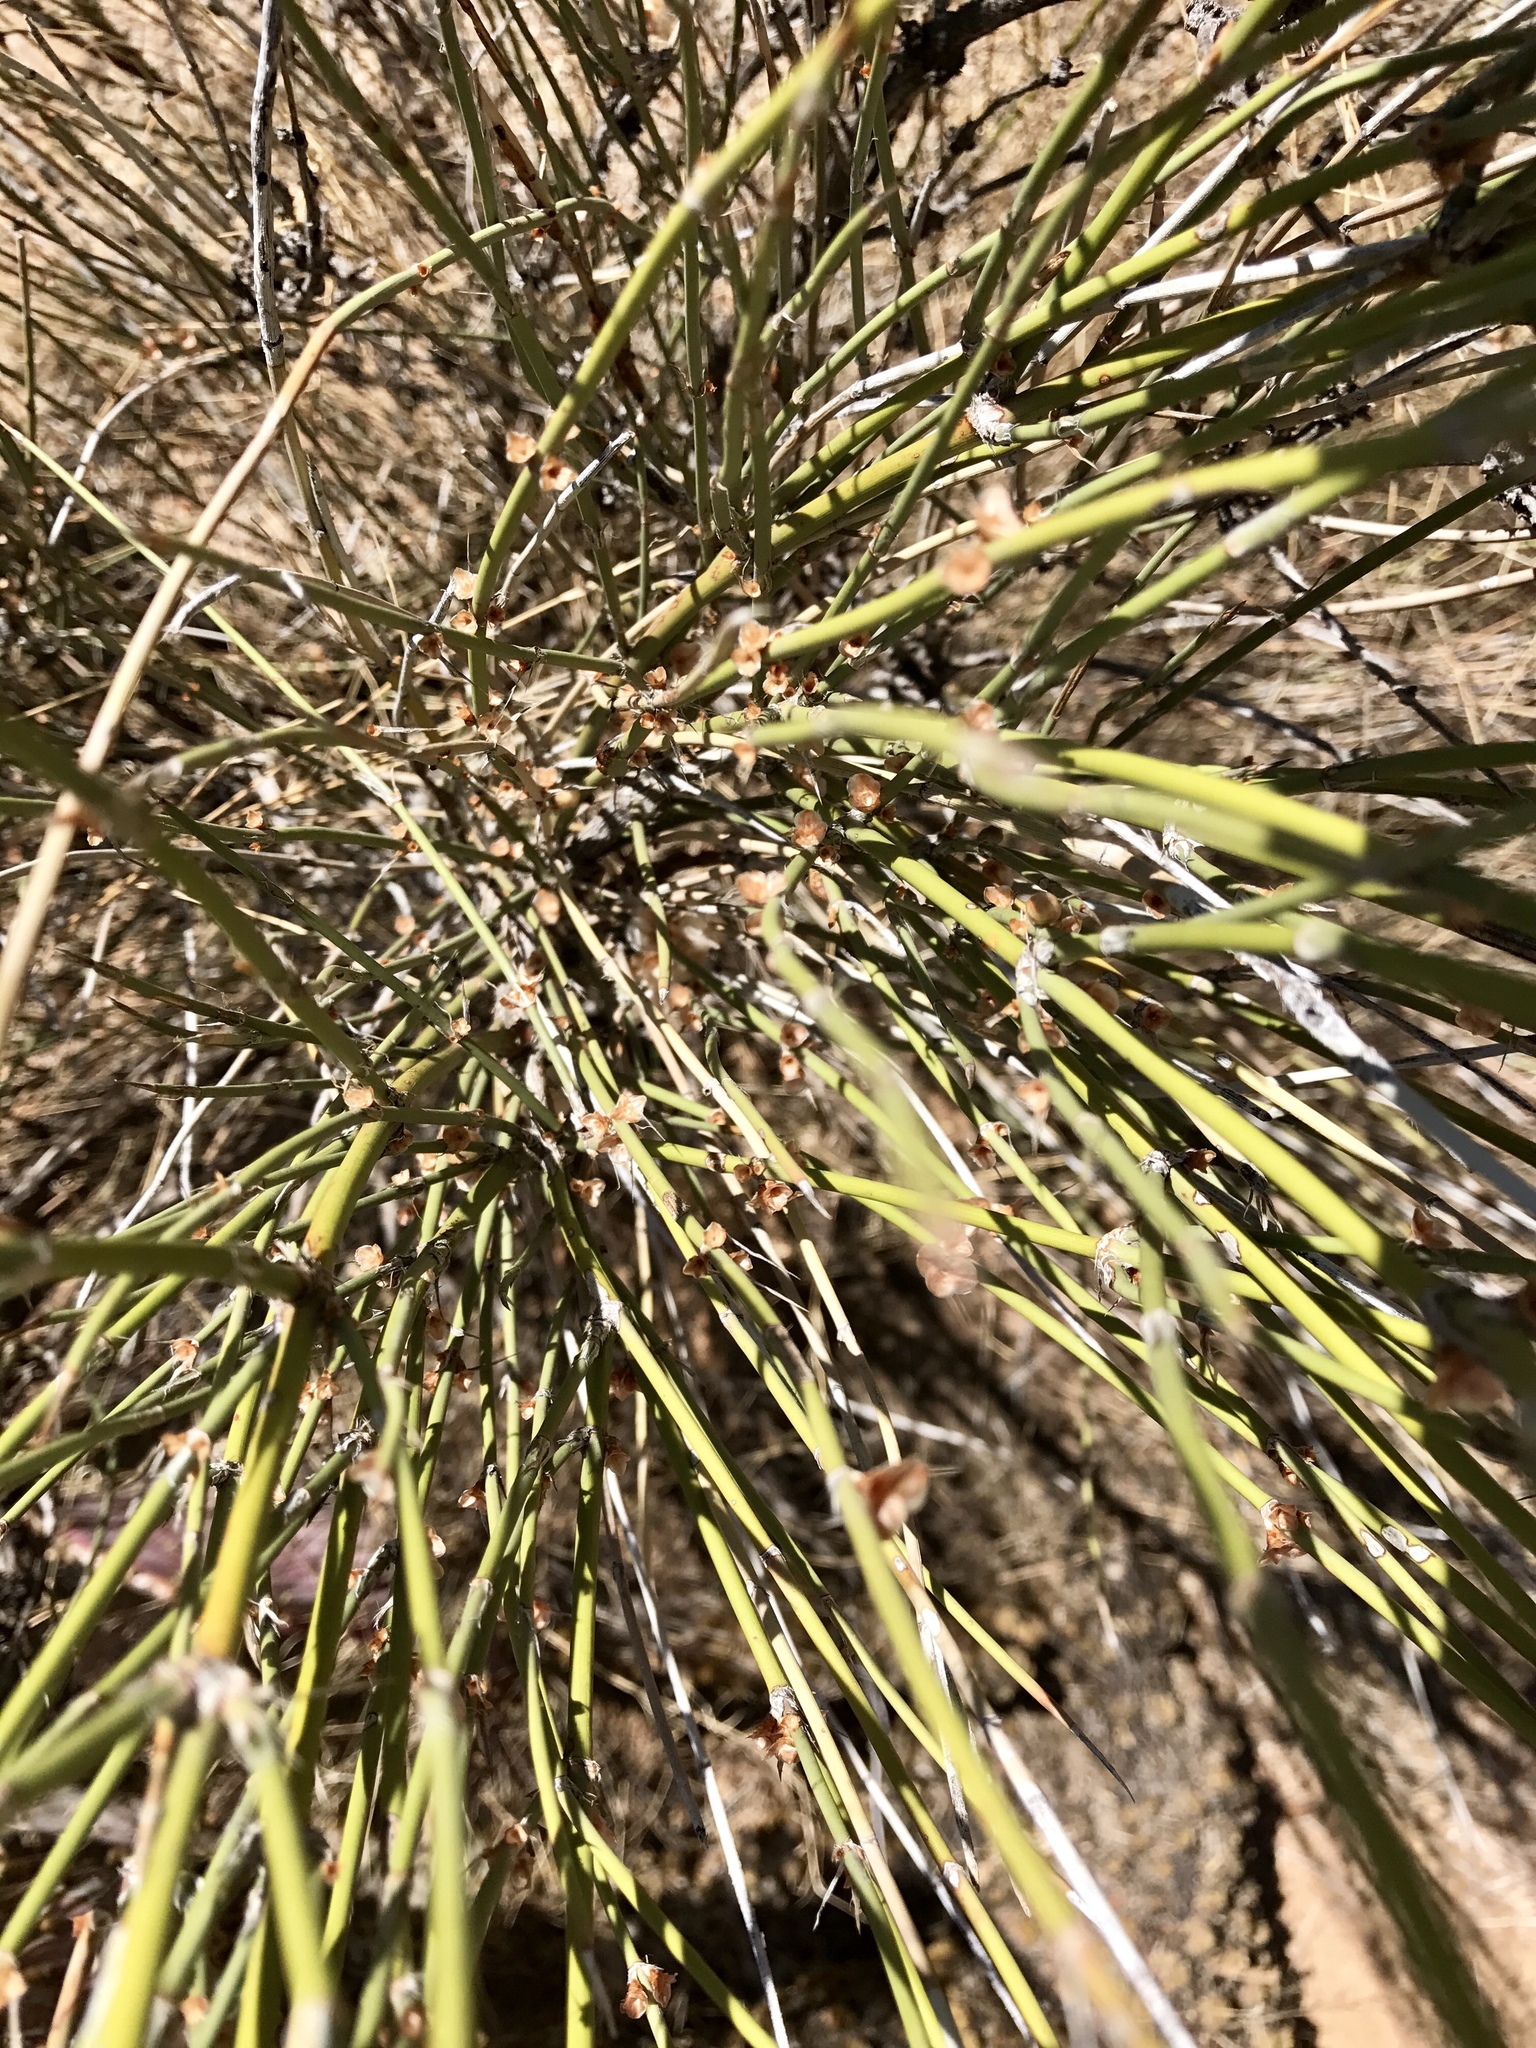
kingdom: Plantae
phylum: Tracheophyta
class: Gnetopsida
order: Ephedrales
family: Ephedraceae
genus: Ephedra
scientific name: Ephedra trifurca
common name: Mexican-tea
